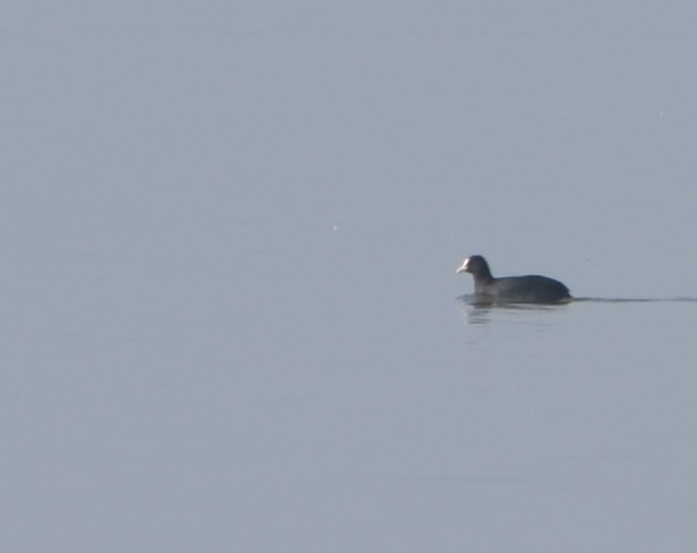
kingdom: Animalia
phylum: Chordata
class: Aves
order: Gruiformes
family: Rallidae
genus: Fulica
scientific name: Fulica atra
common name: Eurasian coot
